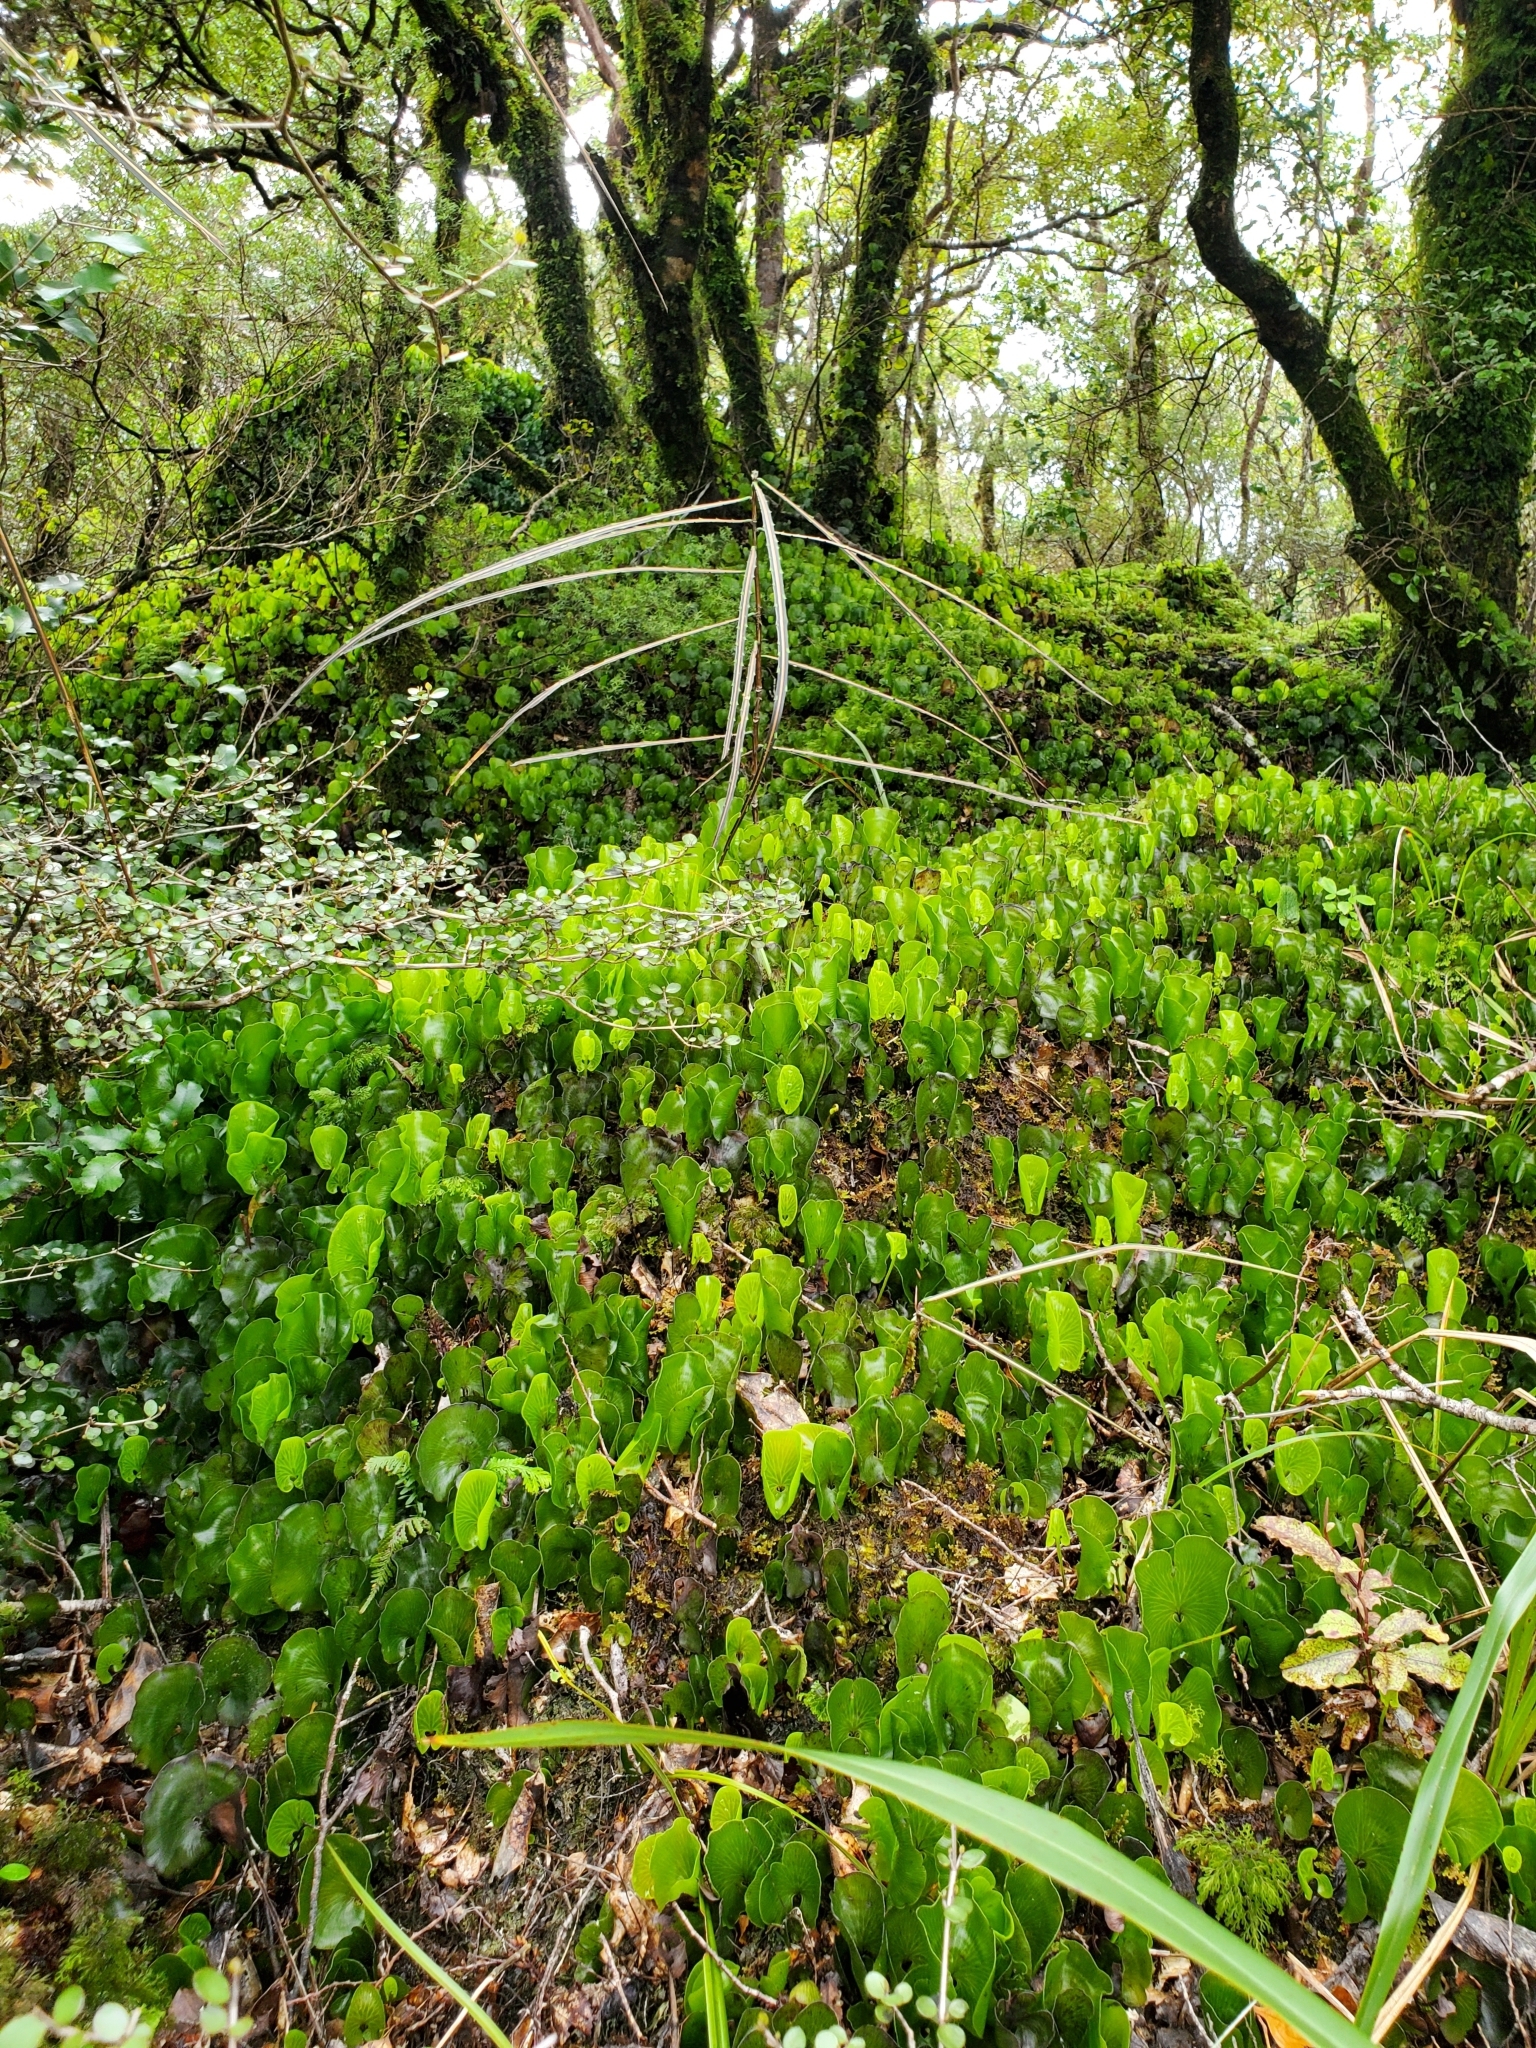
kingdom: Plantae
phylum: Tracheophyta
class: Polypodiopsida
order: Hymenophyllales
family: Hymenophyllaceae
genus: Hymenophyllum
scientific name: Hymenophyllum nephrophyllum
